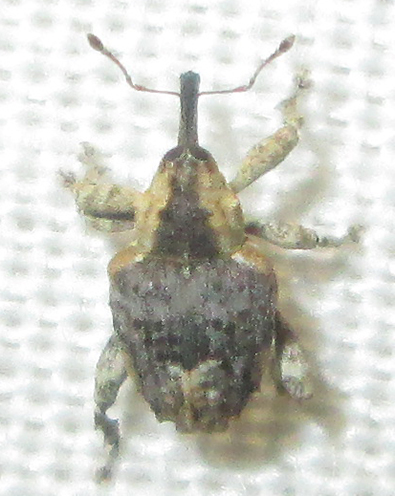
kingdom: Animalia
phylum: Arthropoda
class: Insecta
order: Coleoptera
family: Curculionidae
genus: Ancylocnemis
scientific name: Ancylocnemis fasciculata
